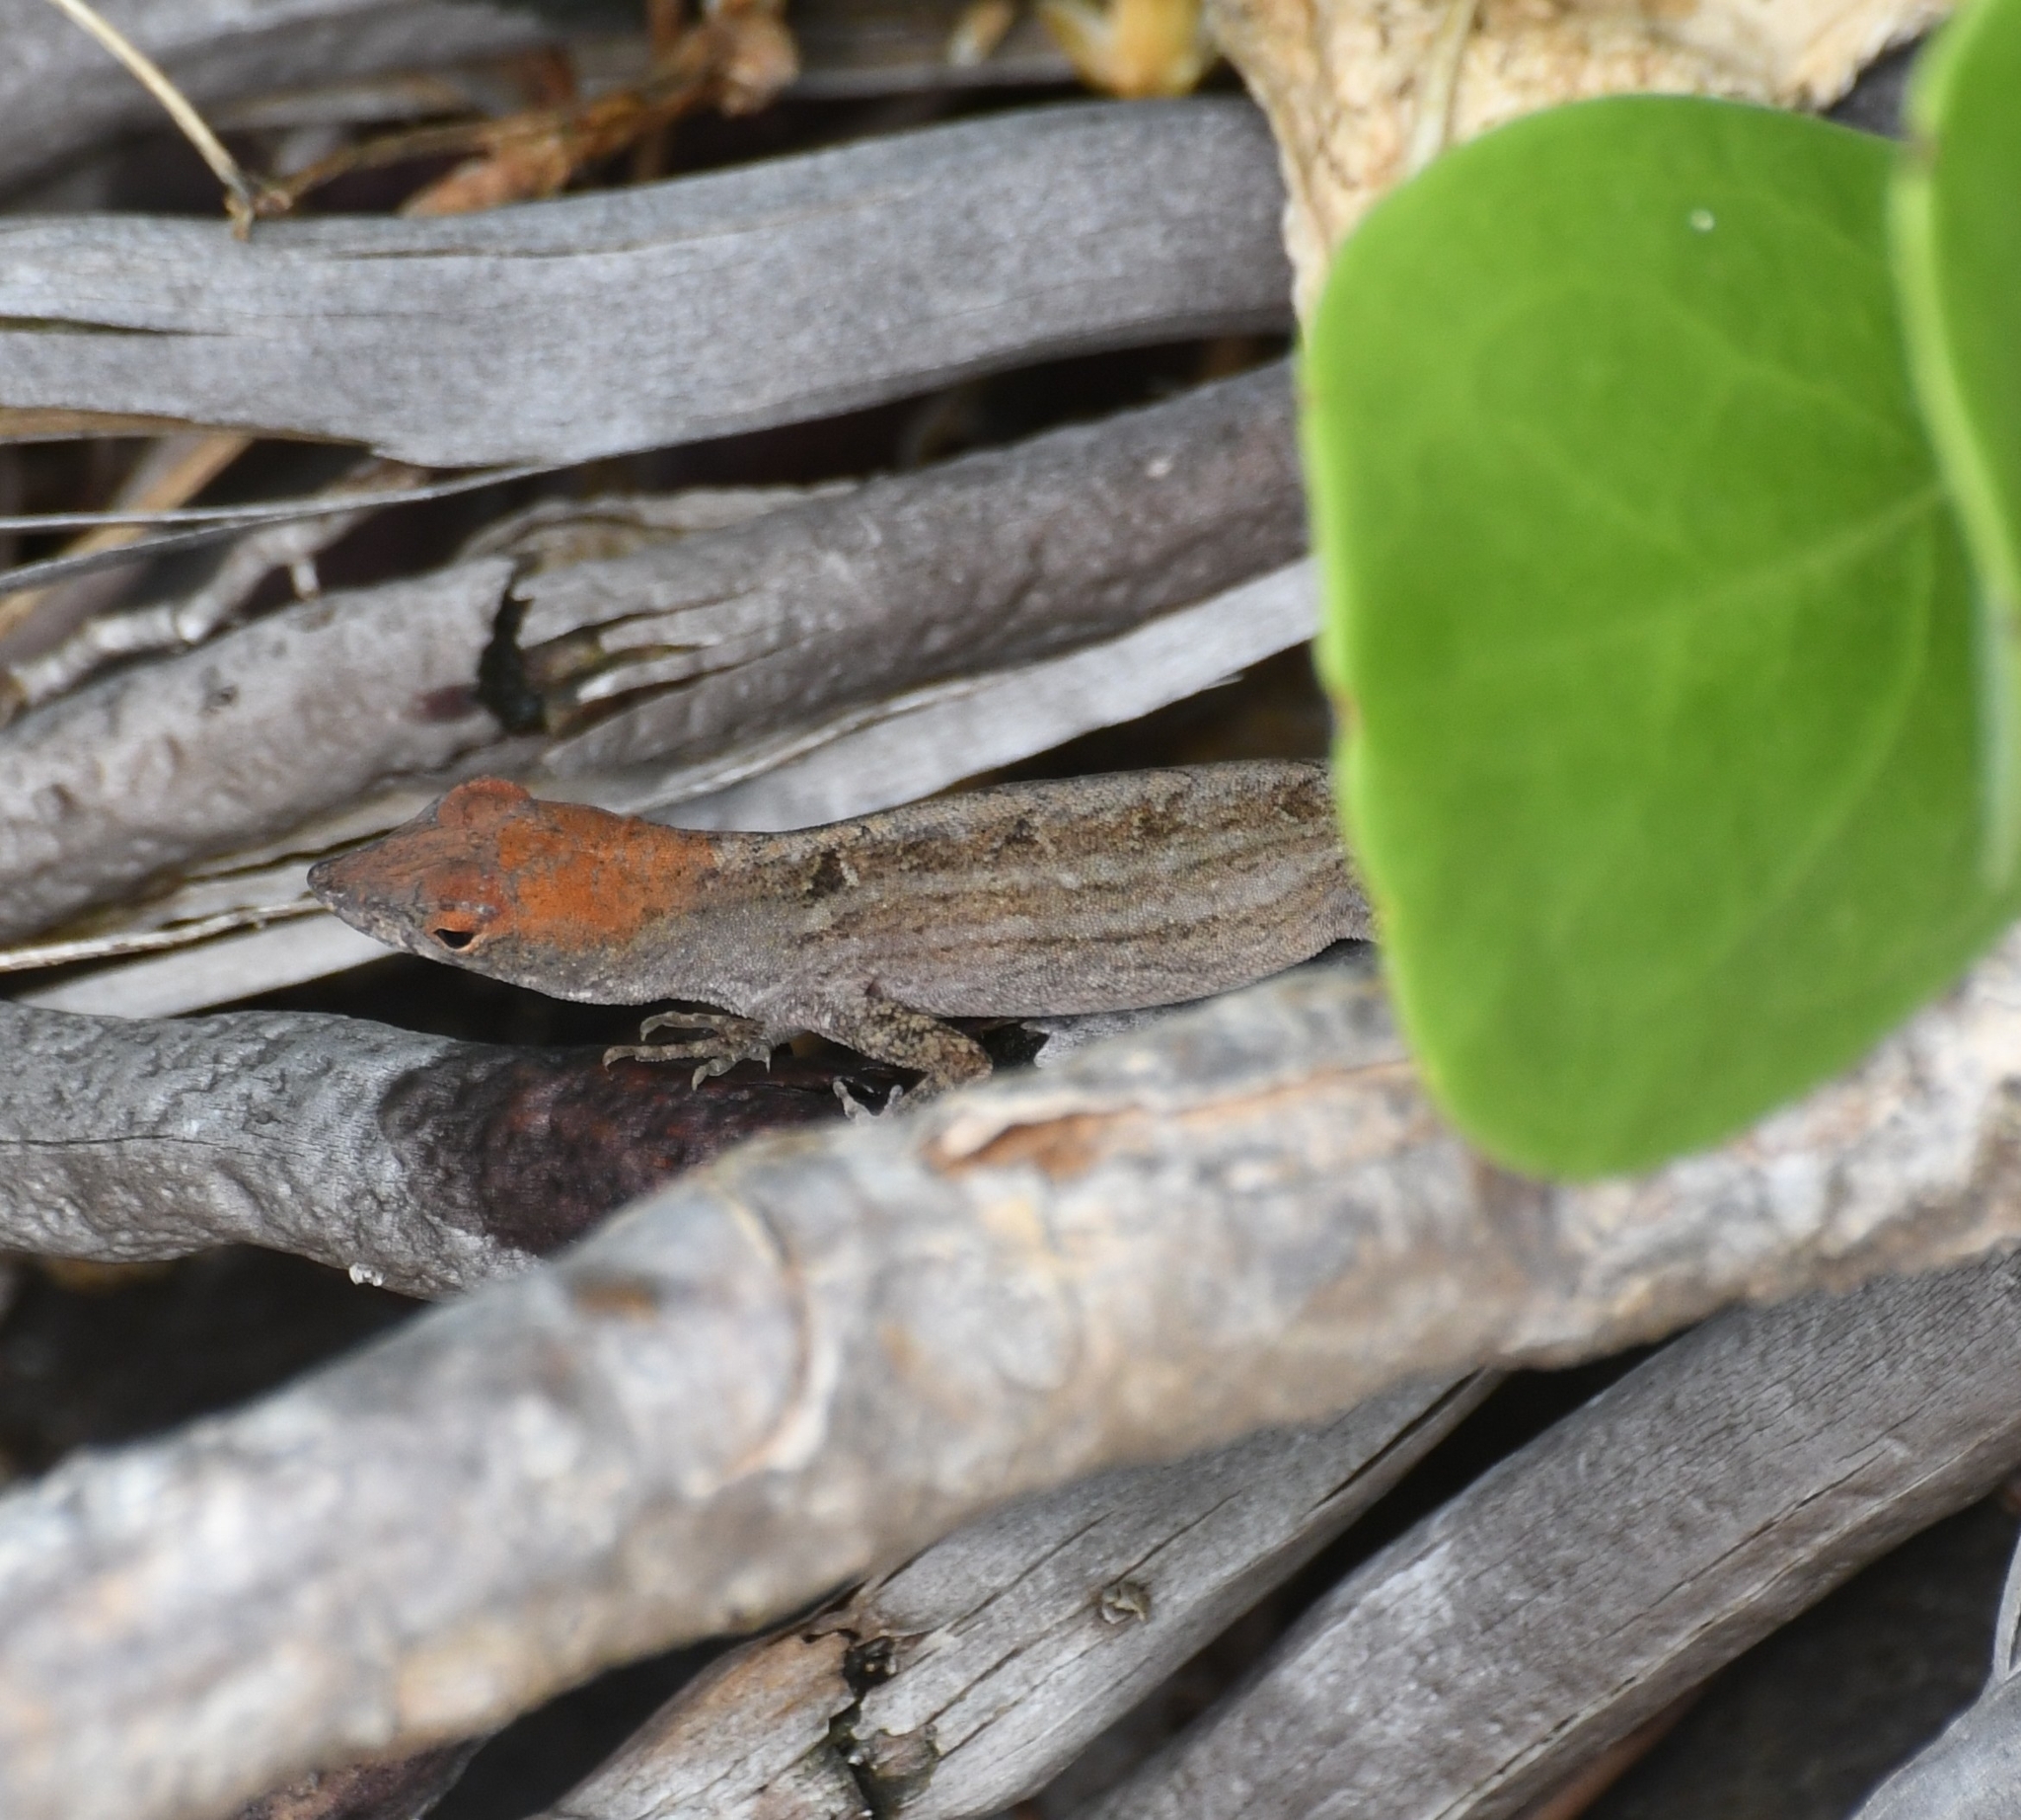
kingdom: Animalia
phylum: Chordata
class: Squamata
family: Dactyloidae
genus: Anolis
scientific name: Anolis sagrei
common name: Brown anole
